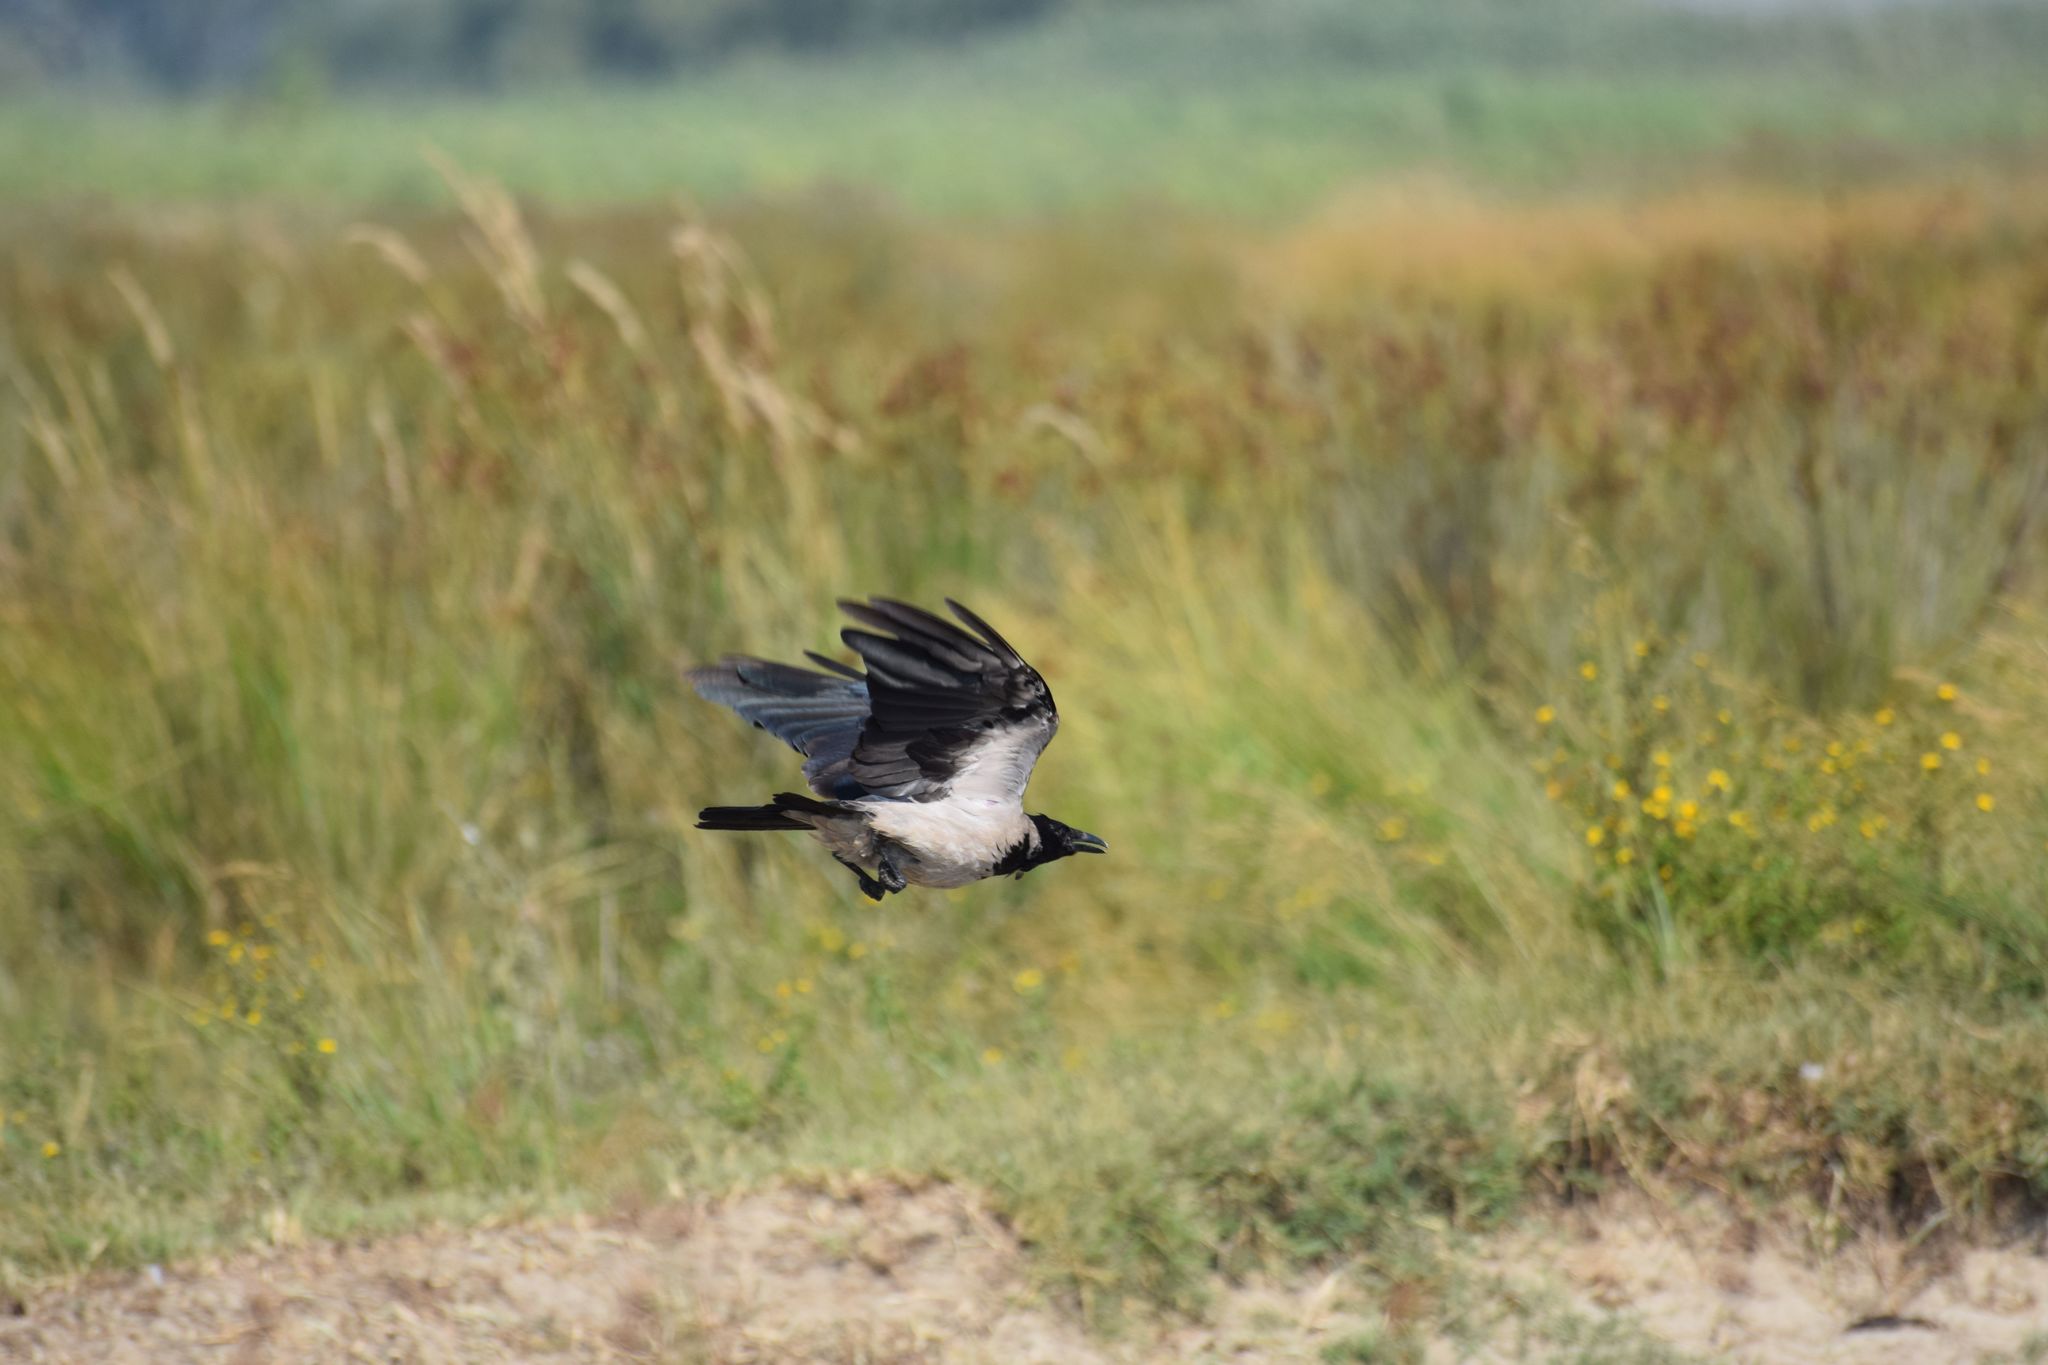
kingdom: Animalia
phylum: Chordata
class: Aves
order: Passeriformes
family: Corvidae
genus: Corvus
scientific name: Corvus cornix
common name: Hooded crow
